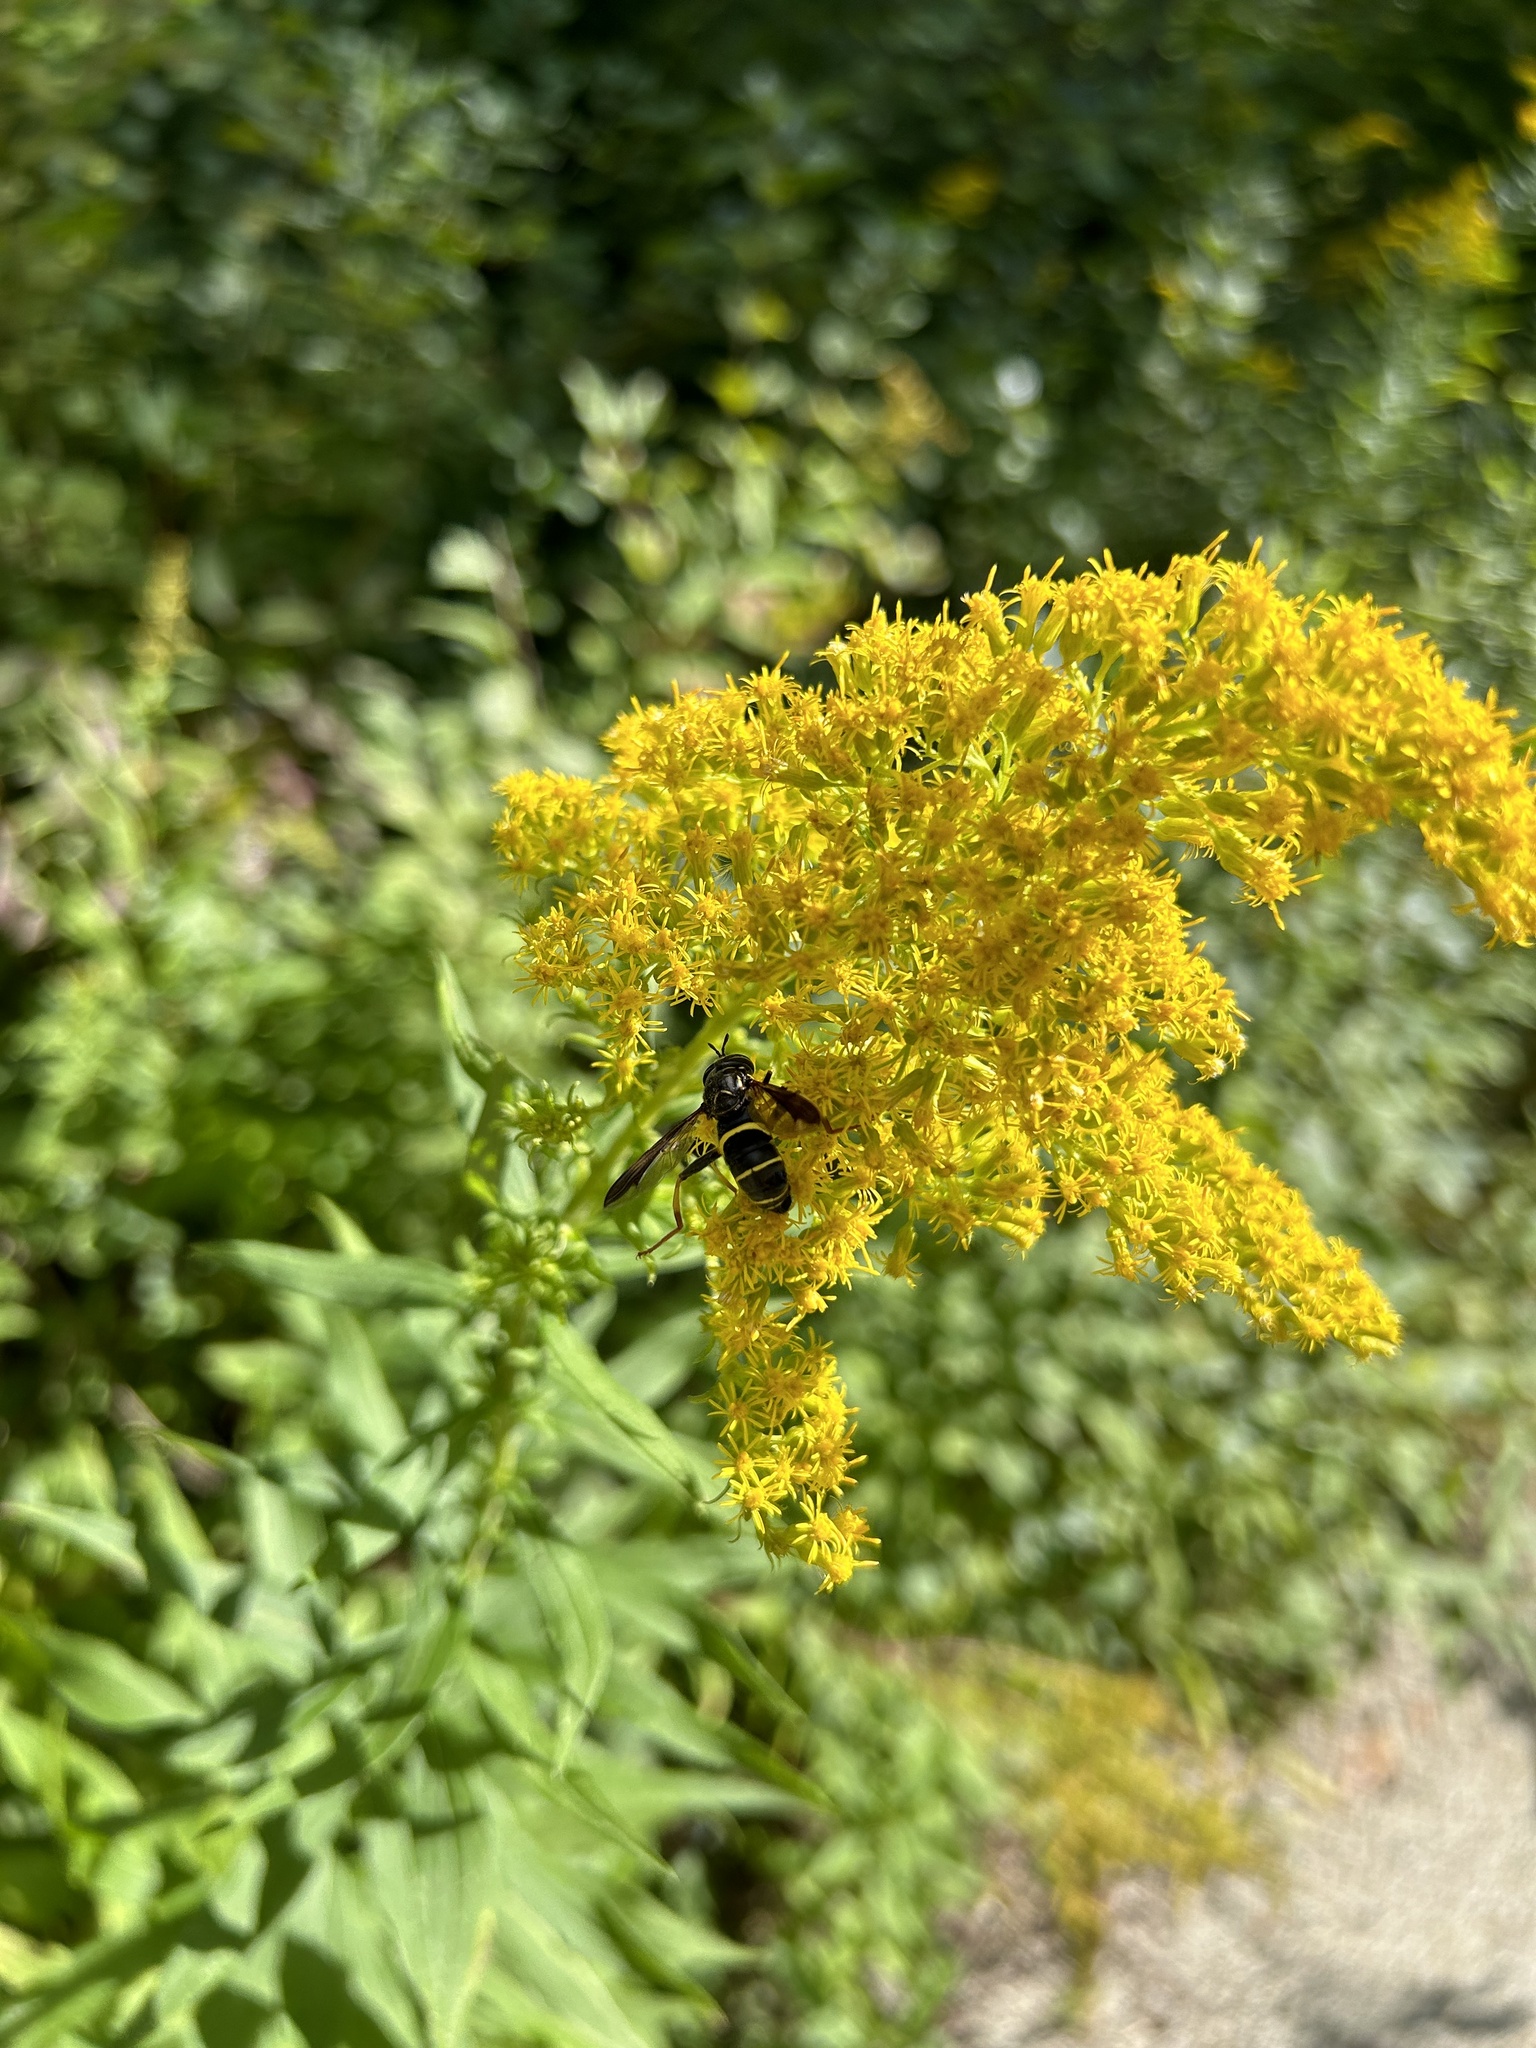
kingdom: Animalia
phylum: Arthropoda
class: Insecta
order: Diptera
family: Syrphidae
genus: Spilomyia
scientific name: Spilomyia sayi
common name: Four-lined hornet fly
